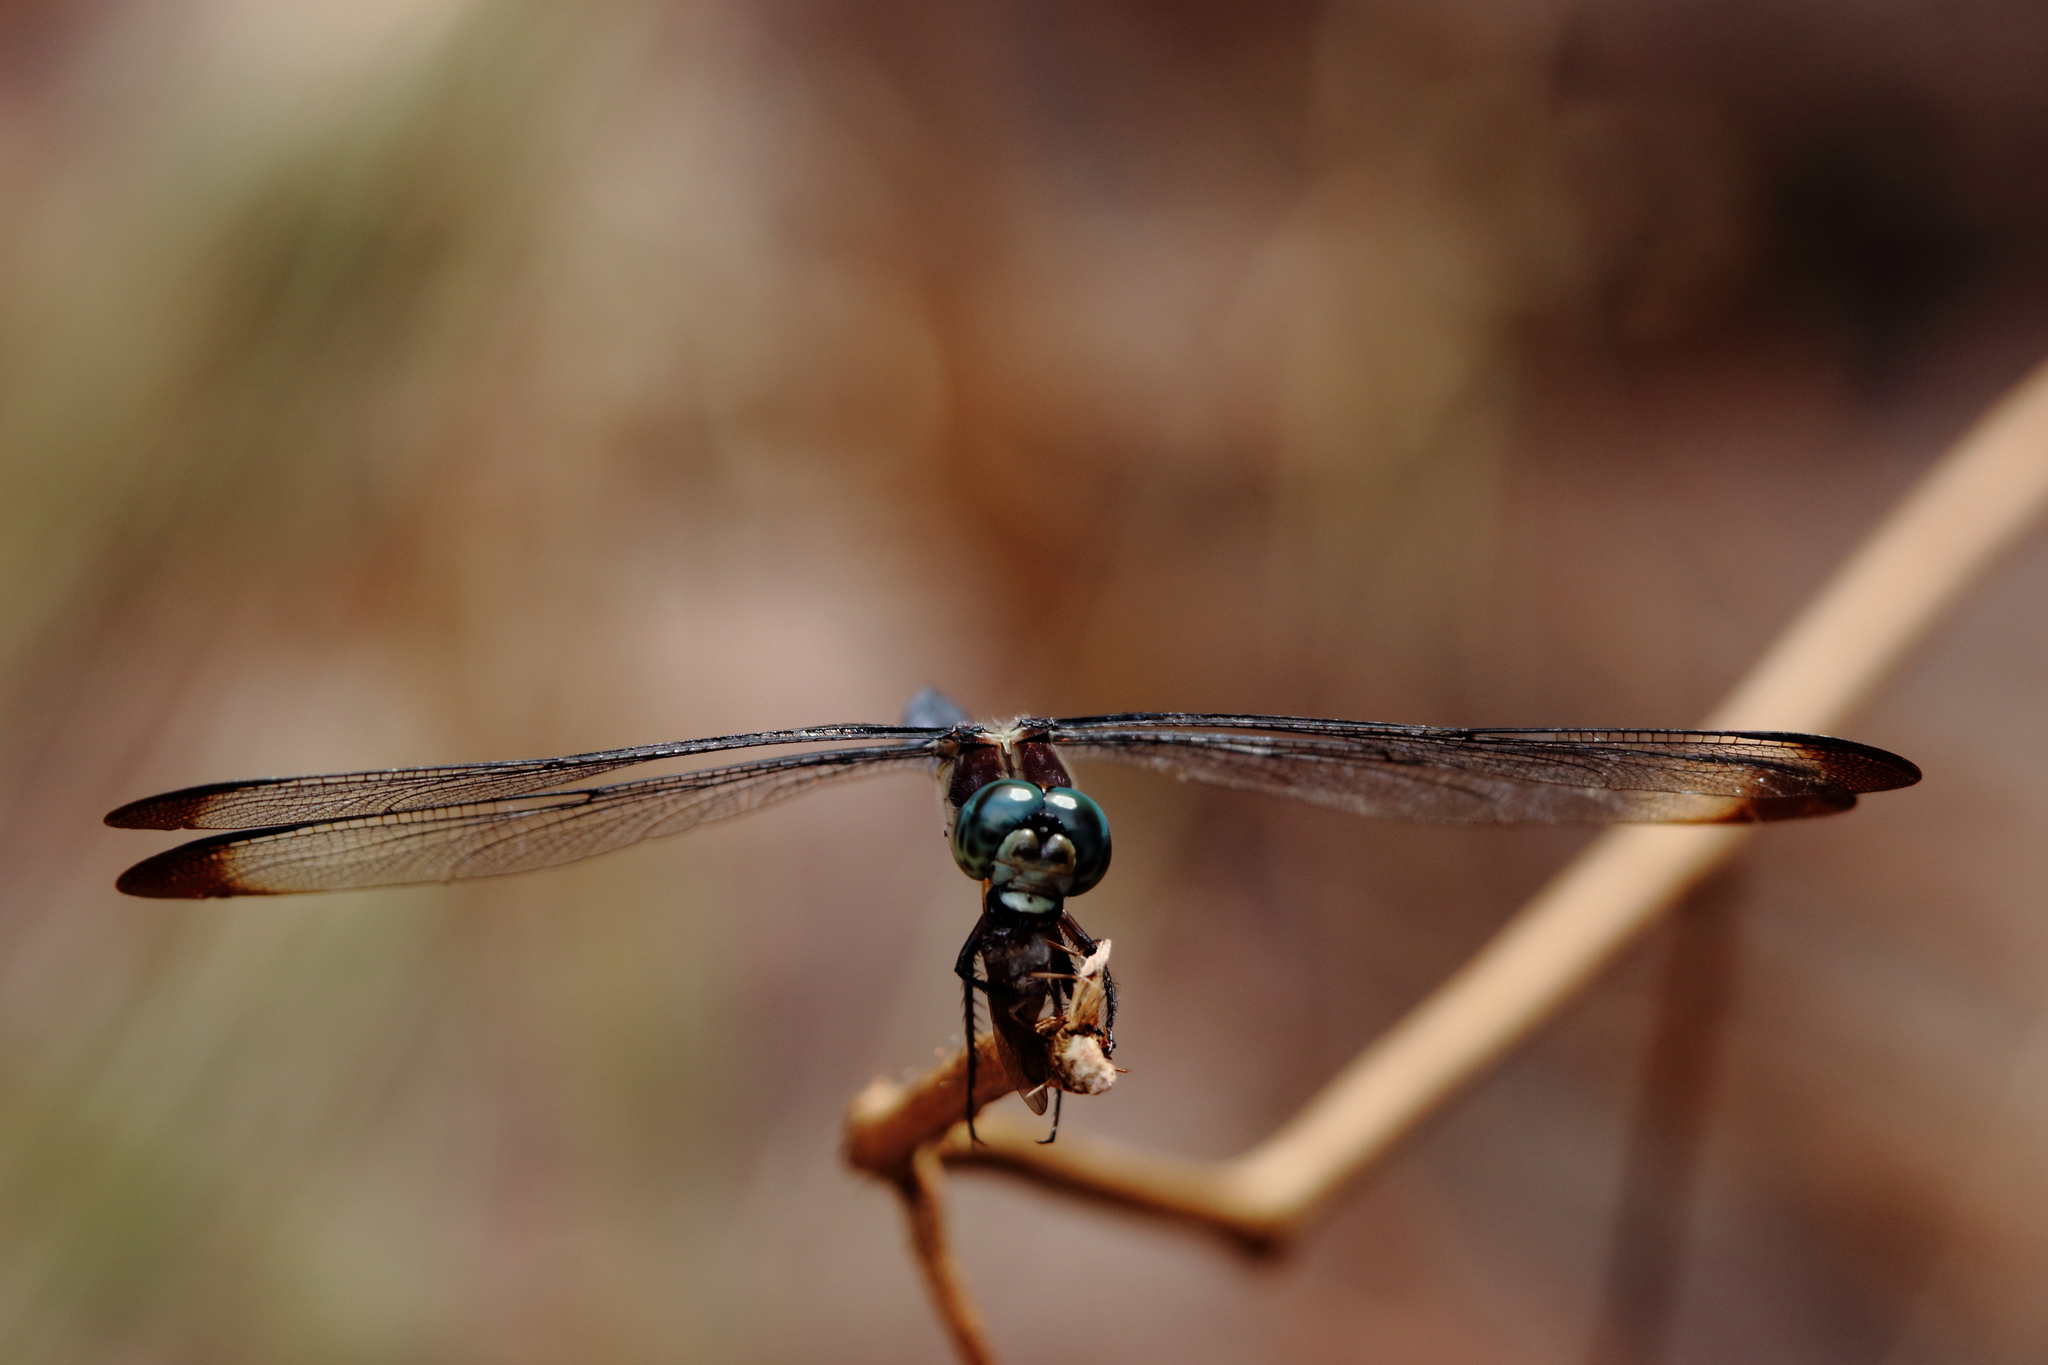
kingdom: Animalia
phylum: Arthropoda
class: Insecta
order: Odonata
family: Libellulidae
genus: Libellula
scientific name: Libellula vibrans
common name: Great blue skimmer
